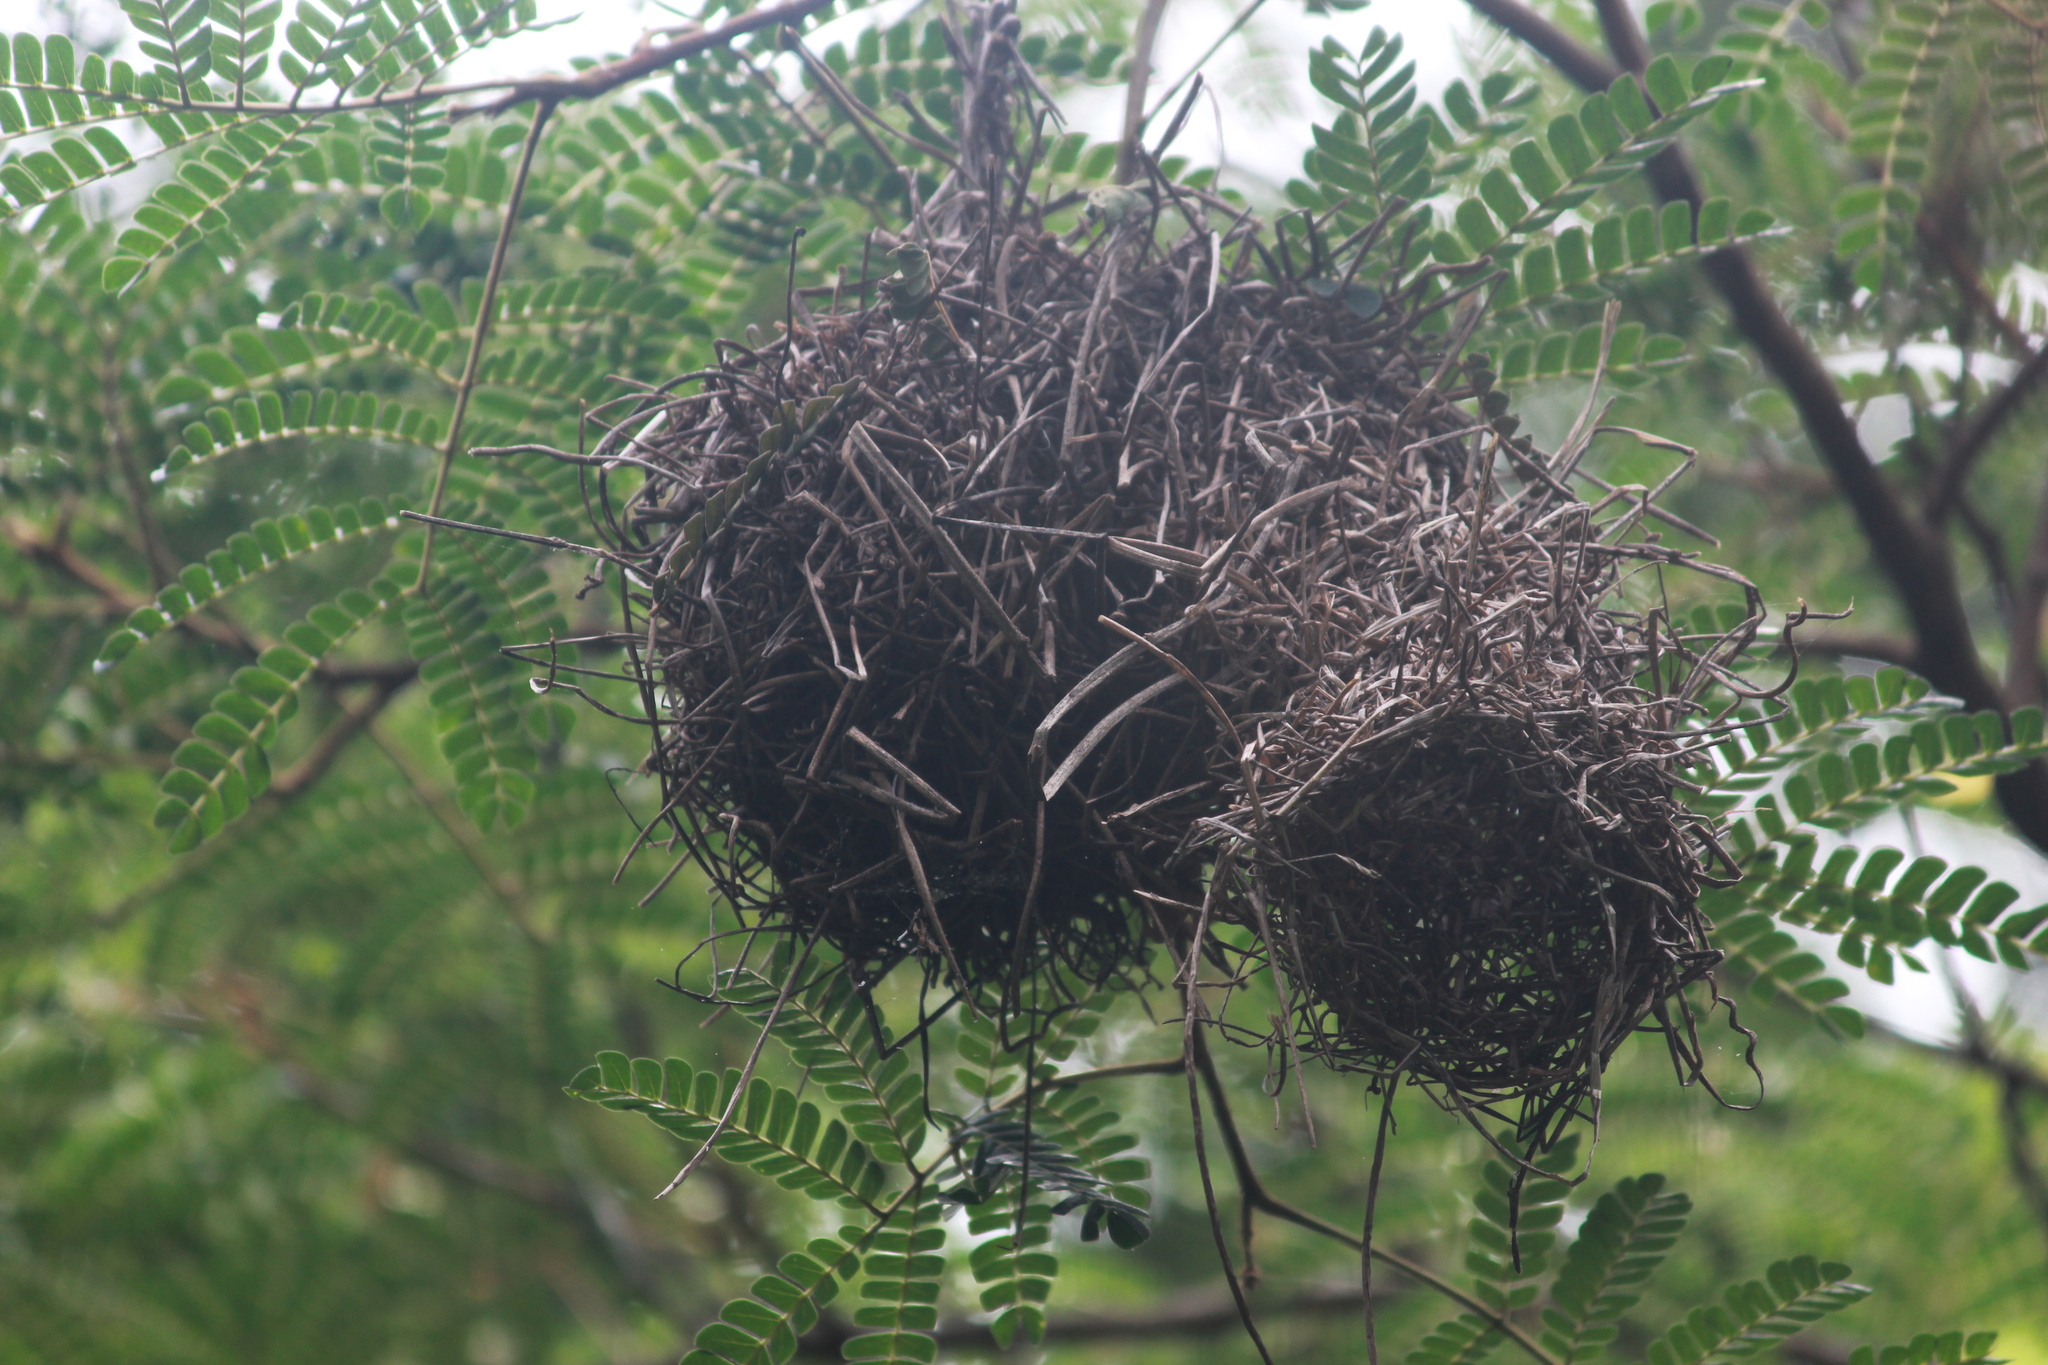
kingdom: Animalia
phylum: Chordata
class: Aves
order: Passeriformes
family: Ploceidae
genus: Ploceus
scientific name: Ploceus bicolor
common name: Dark-backed weaver
